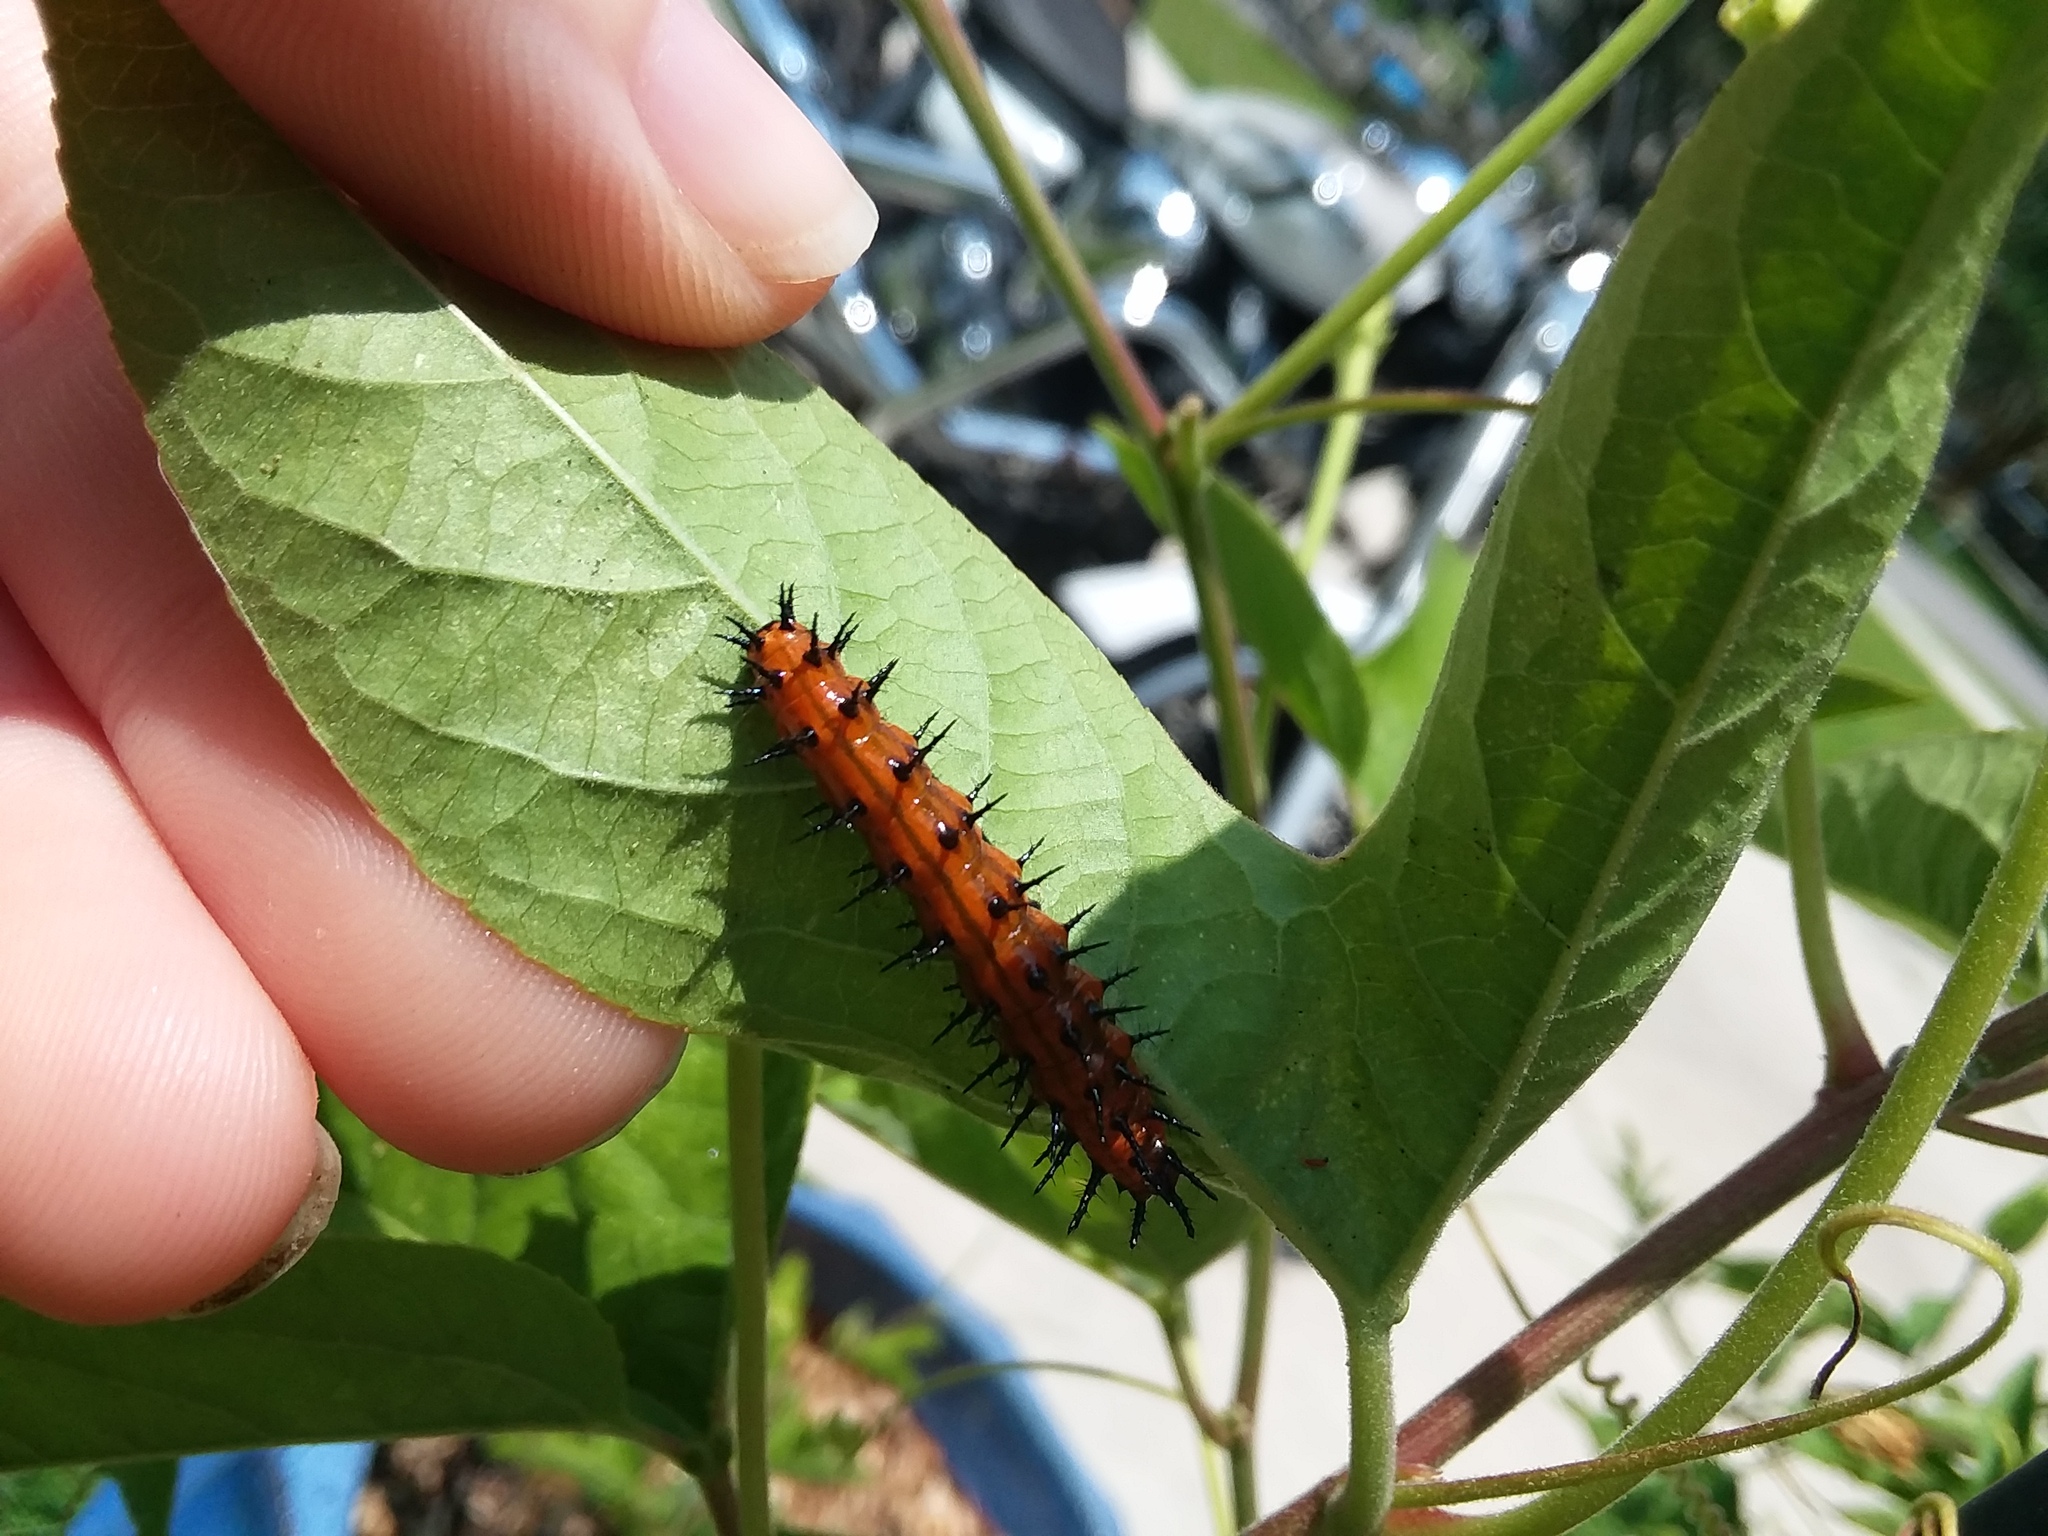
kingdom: Animalia
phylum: Arthropoda
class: Insecta
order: Lepidoptera
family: Nymphalidae
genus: Dione
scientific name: Dione vanillae
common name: Gulf fritillary
